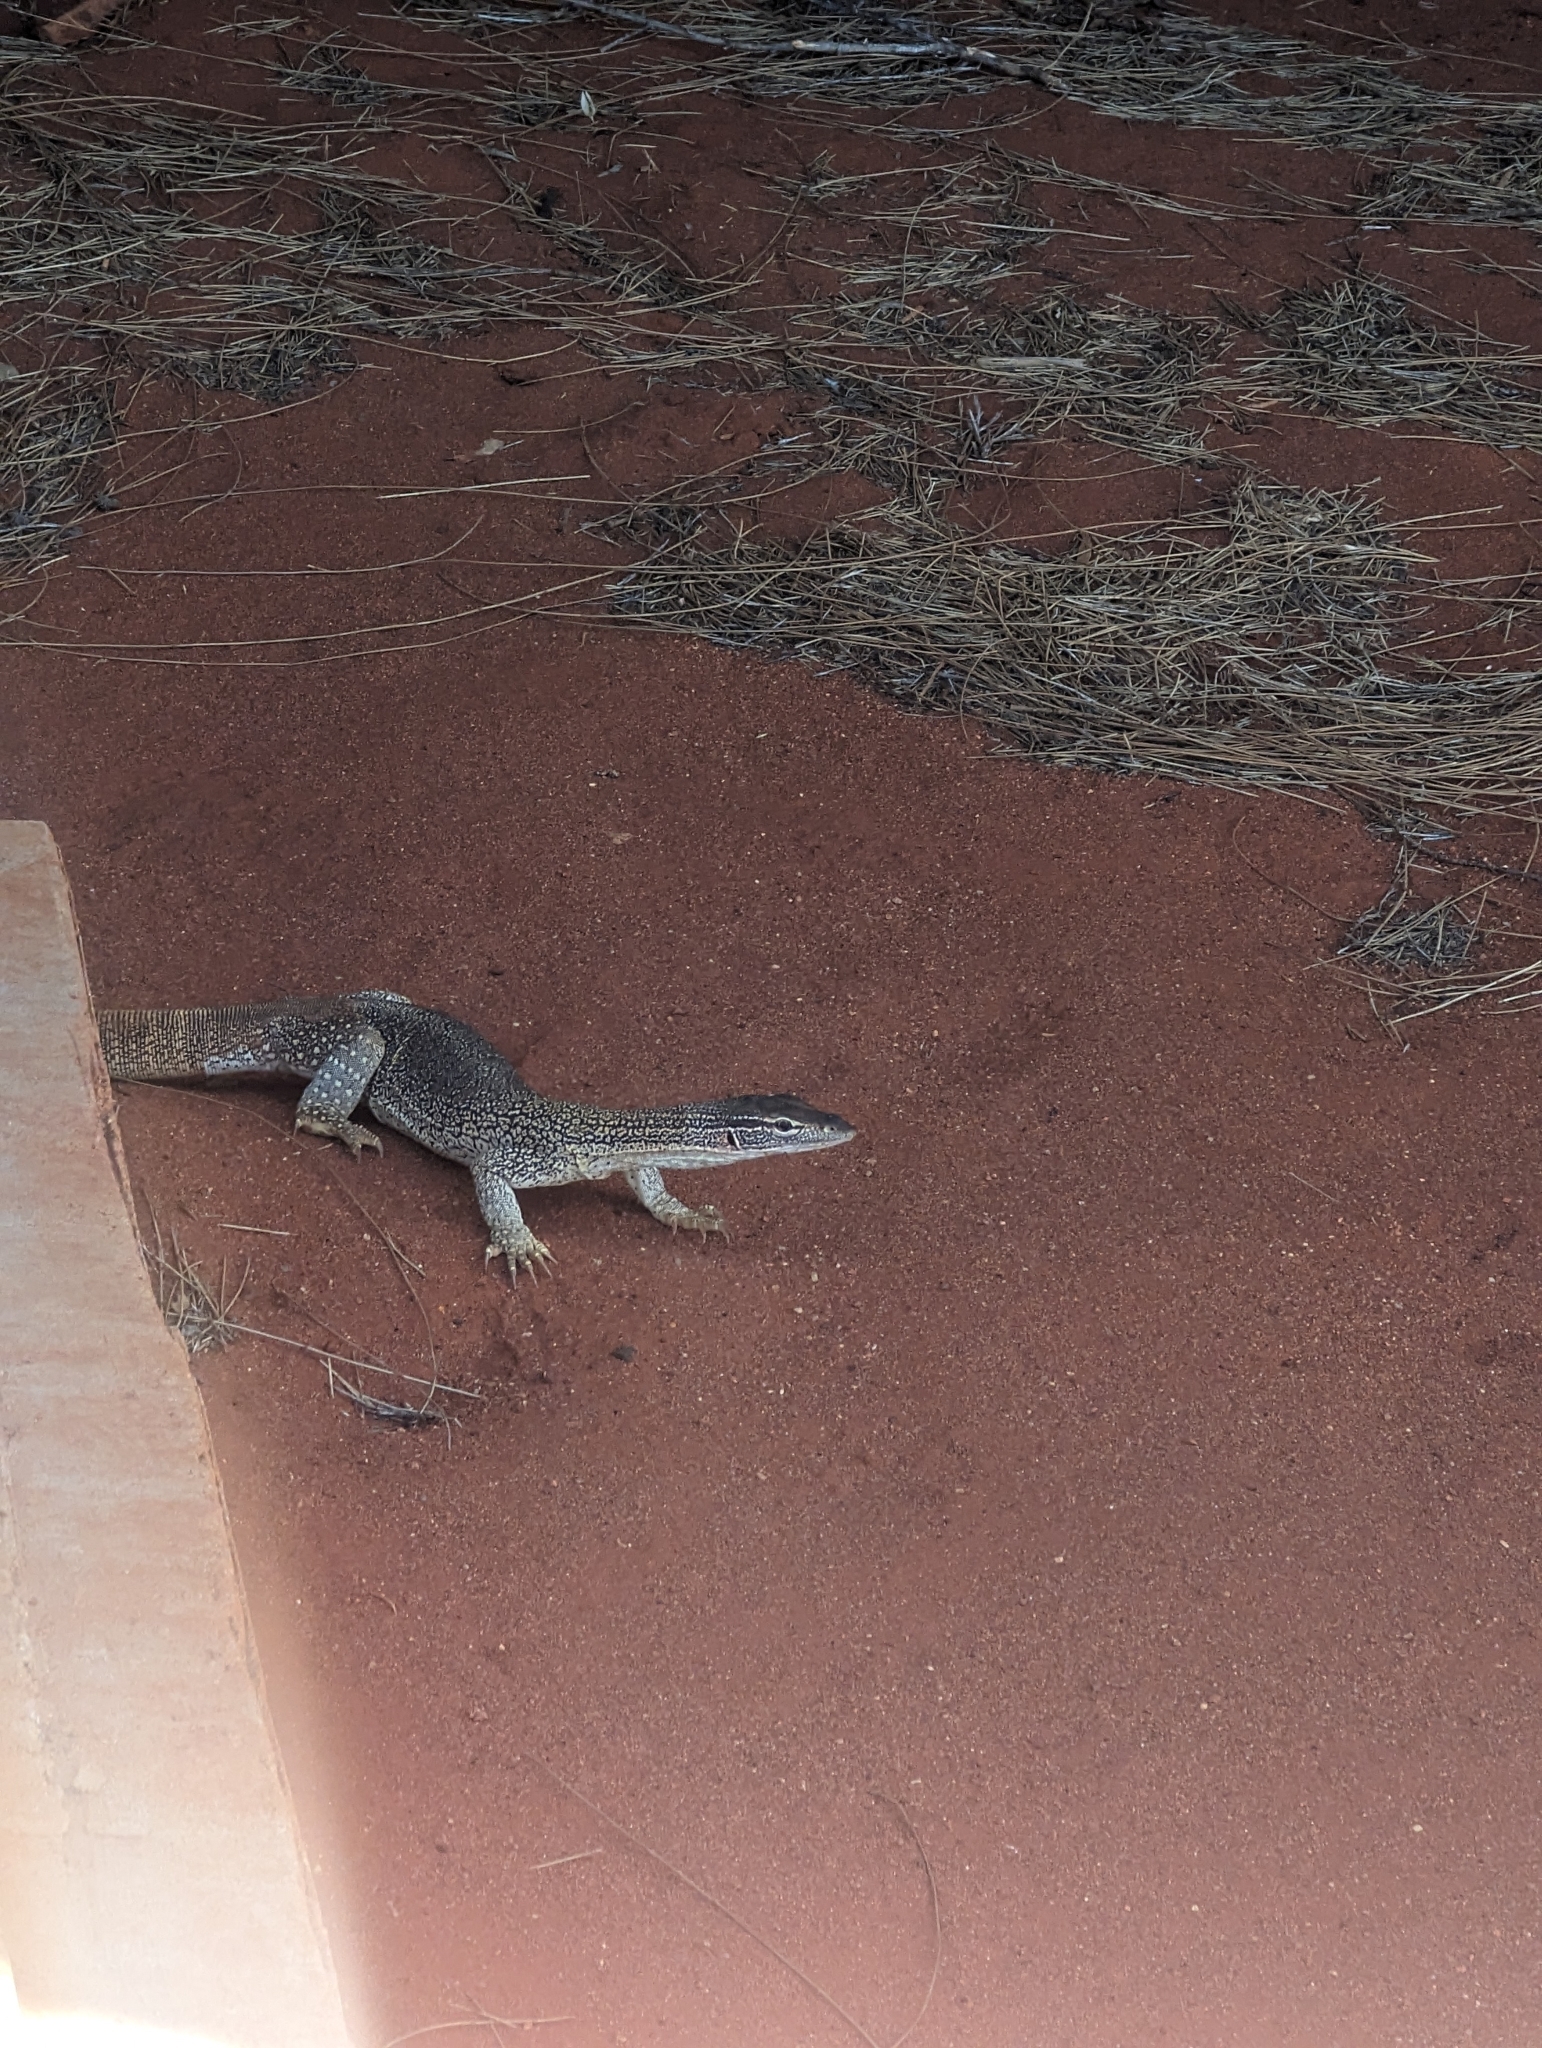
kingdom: Animalia
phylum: Chordata
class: Squamata
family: Varanidae
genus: Varanus
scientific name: Varanus gouldii
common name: Gould's goanna
